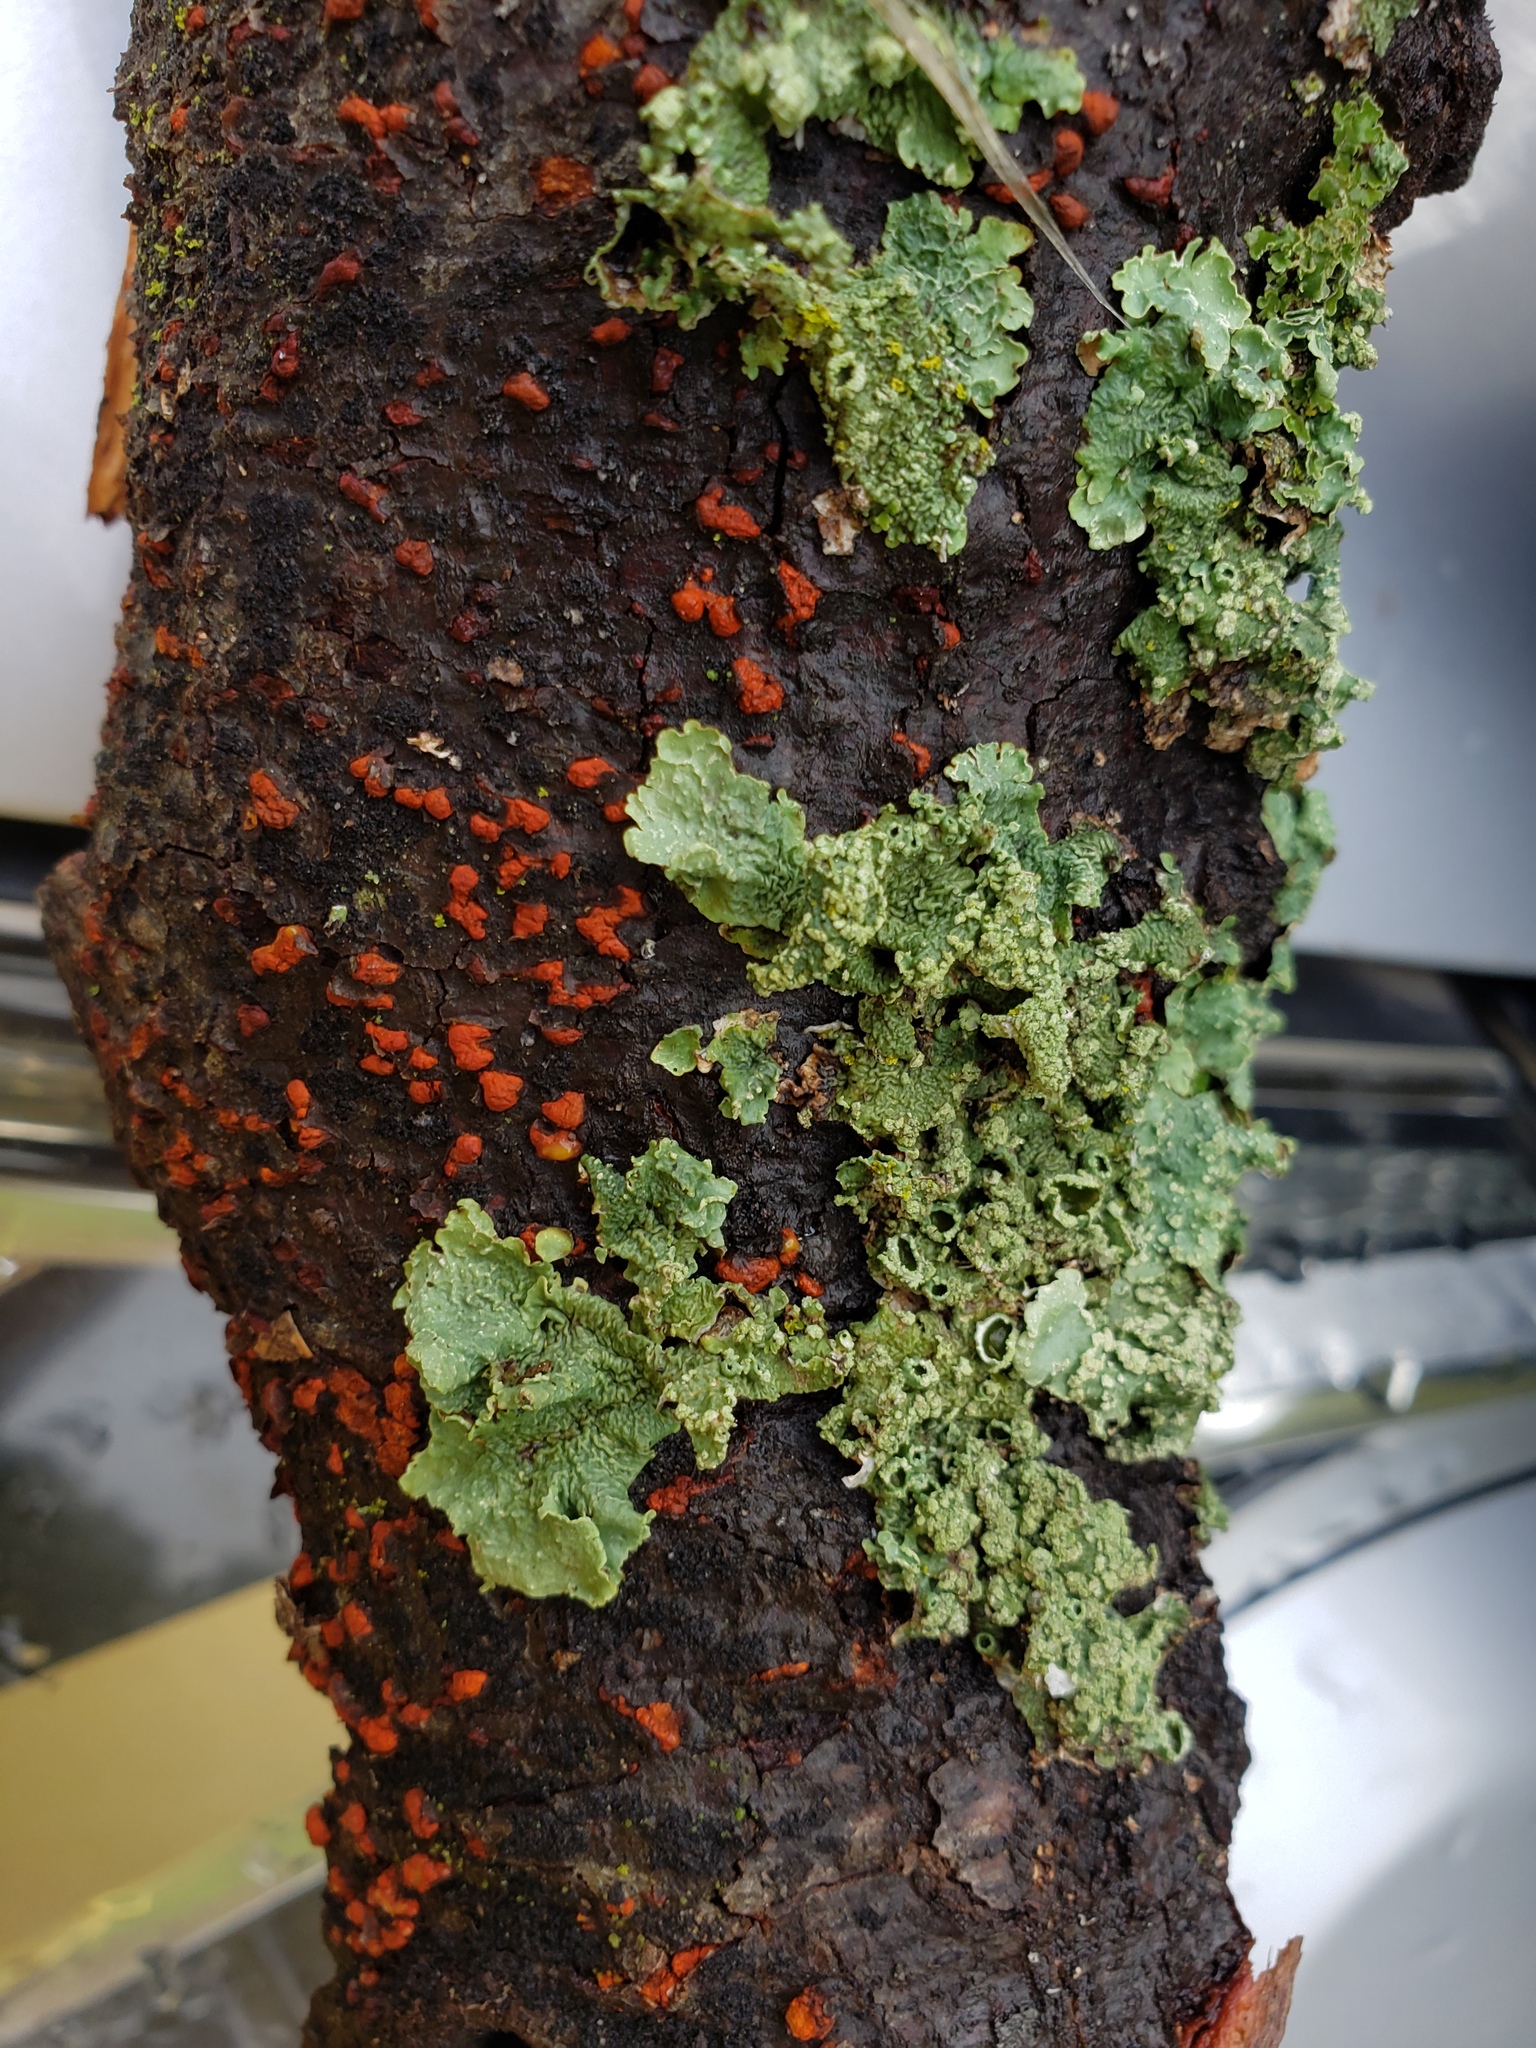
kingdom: Fungi
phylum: Ascomycota
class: Sordariomycetes
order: Diaporthales
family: Cryphonectriaceae
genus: Amphilogia
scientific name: Amphilogia gyrosa
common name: Orange hobnail canker
